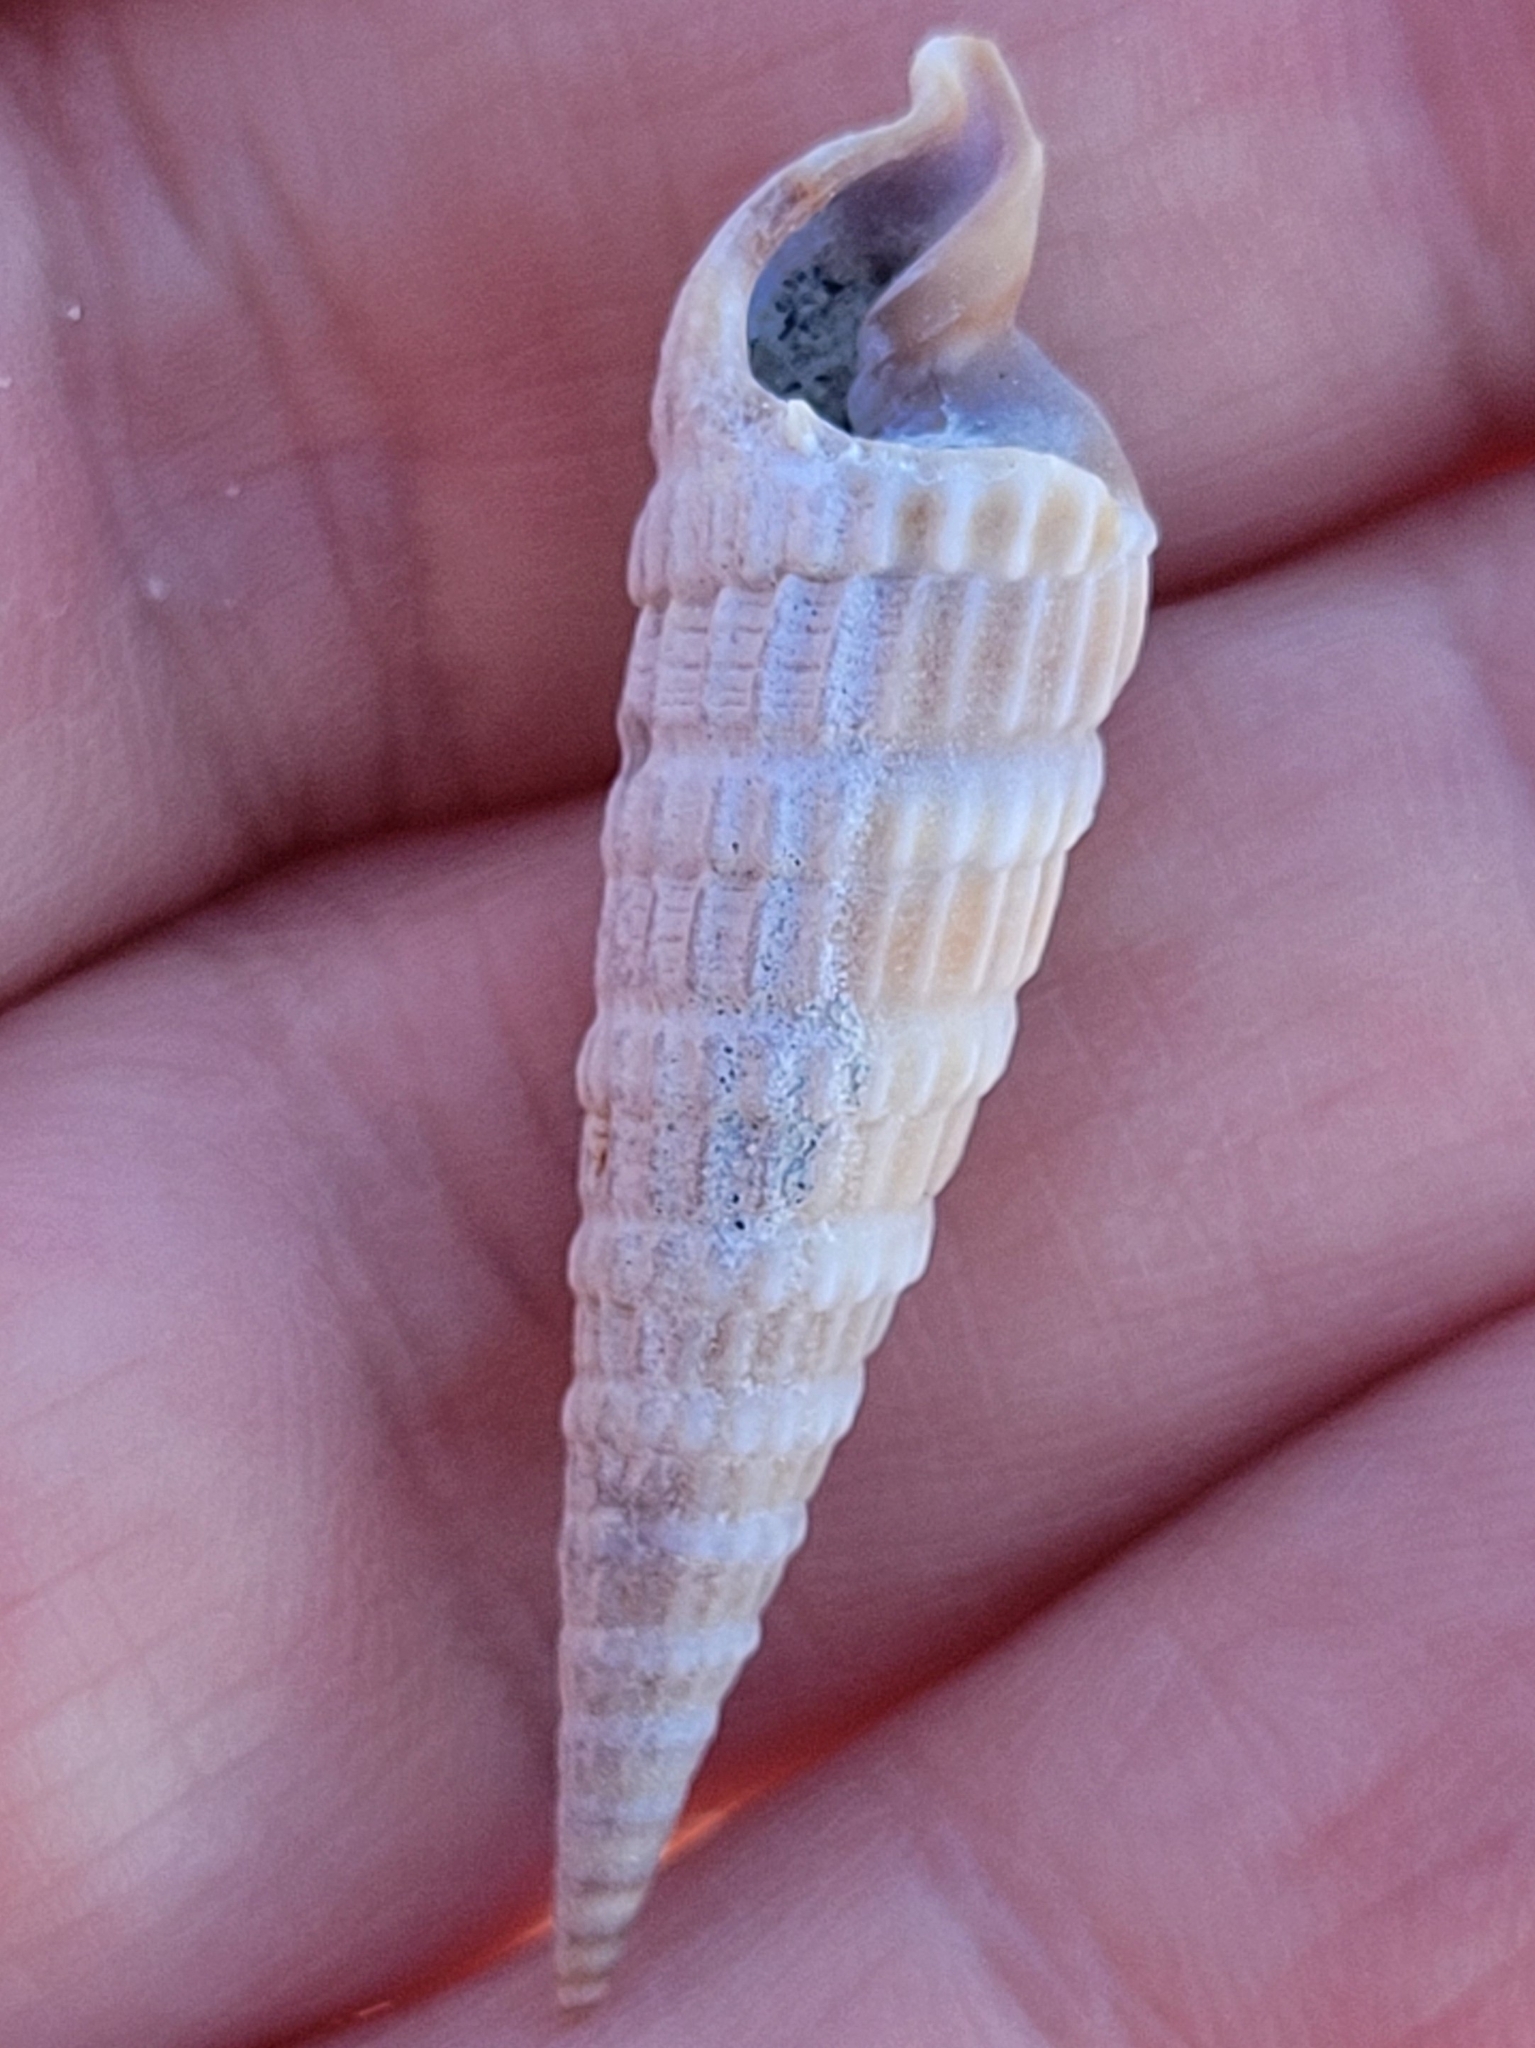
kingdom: Animalia
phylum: Mollusca
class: Gastropoda
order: Neogastropoda
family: Terebridae
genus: Neoterebra
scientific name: Neoterebra dislocata
